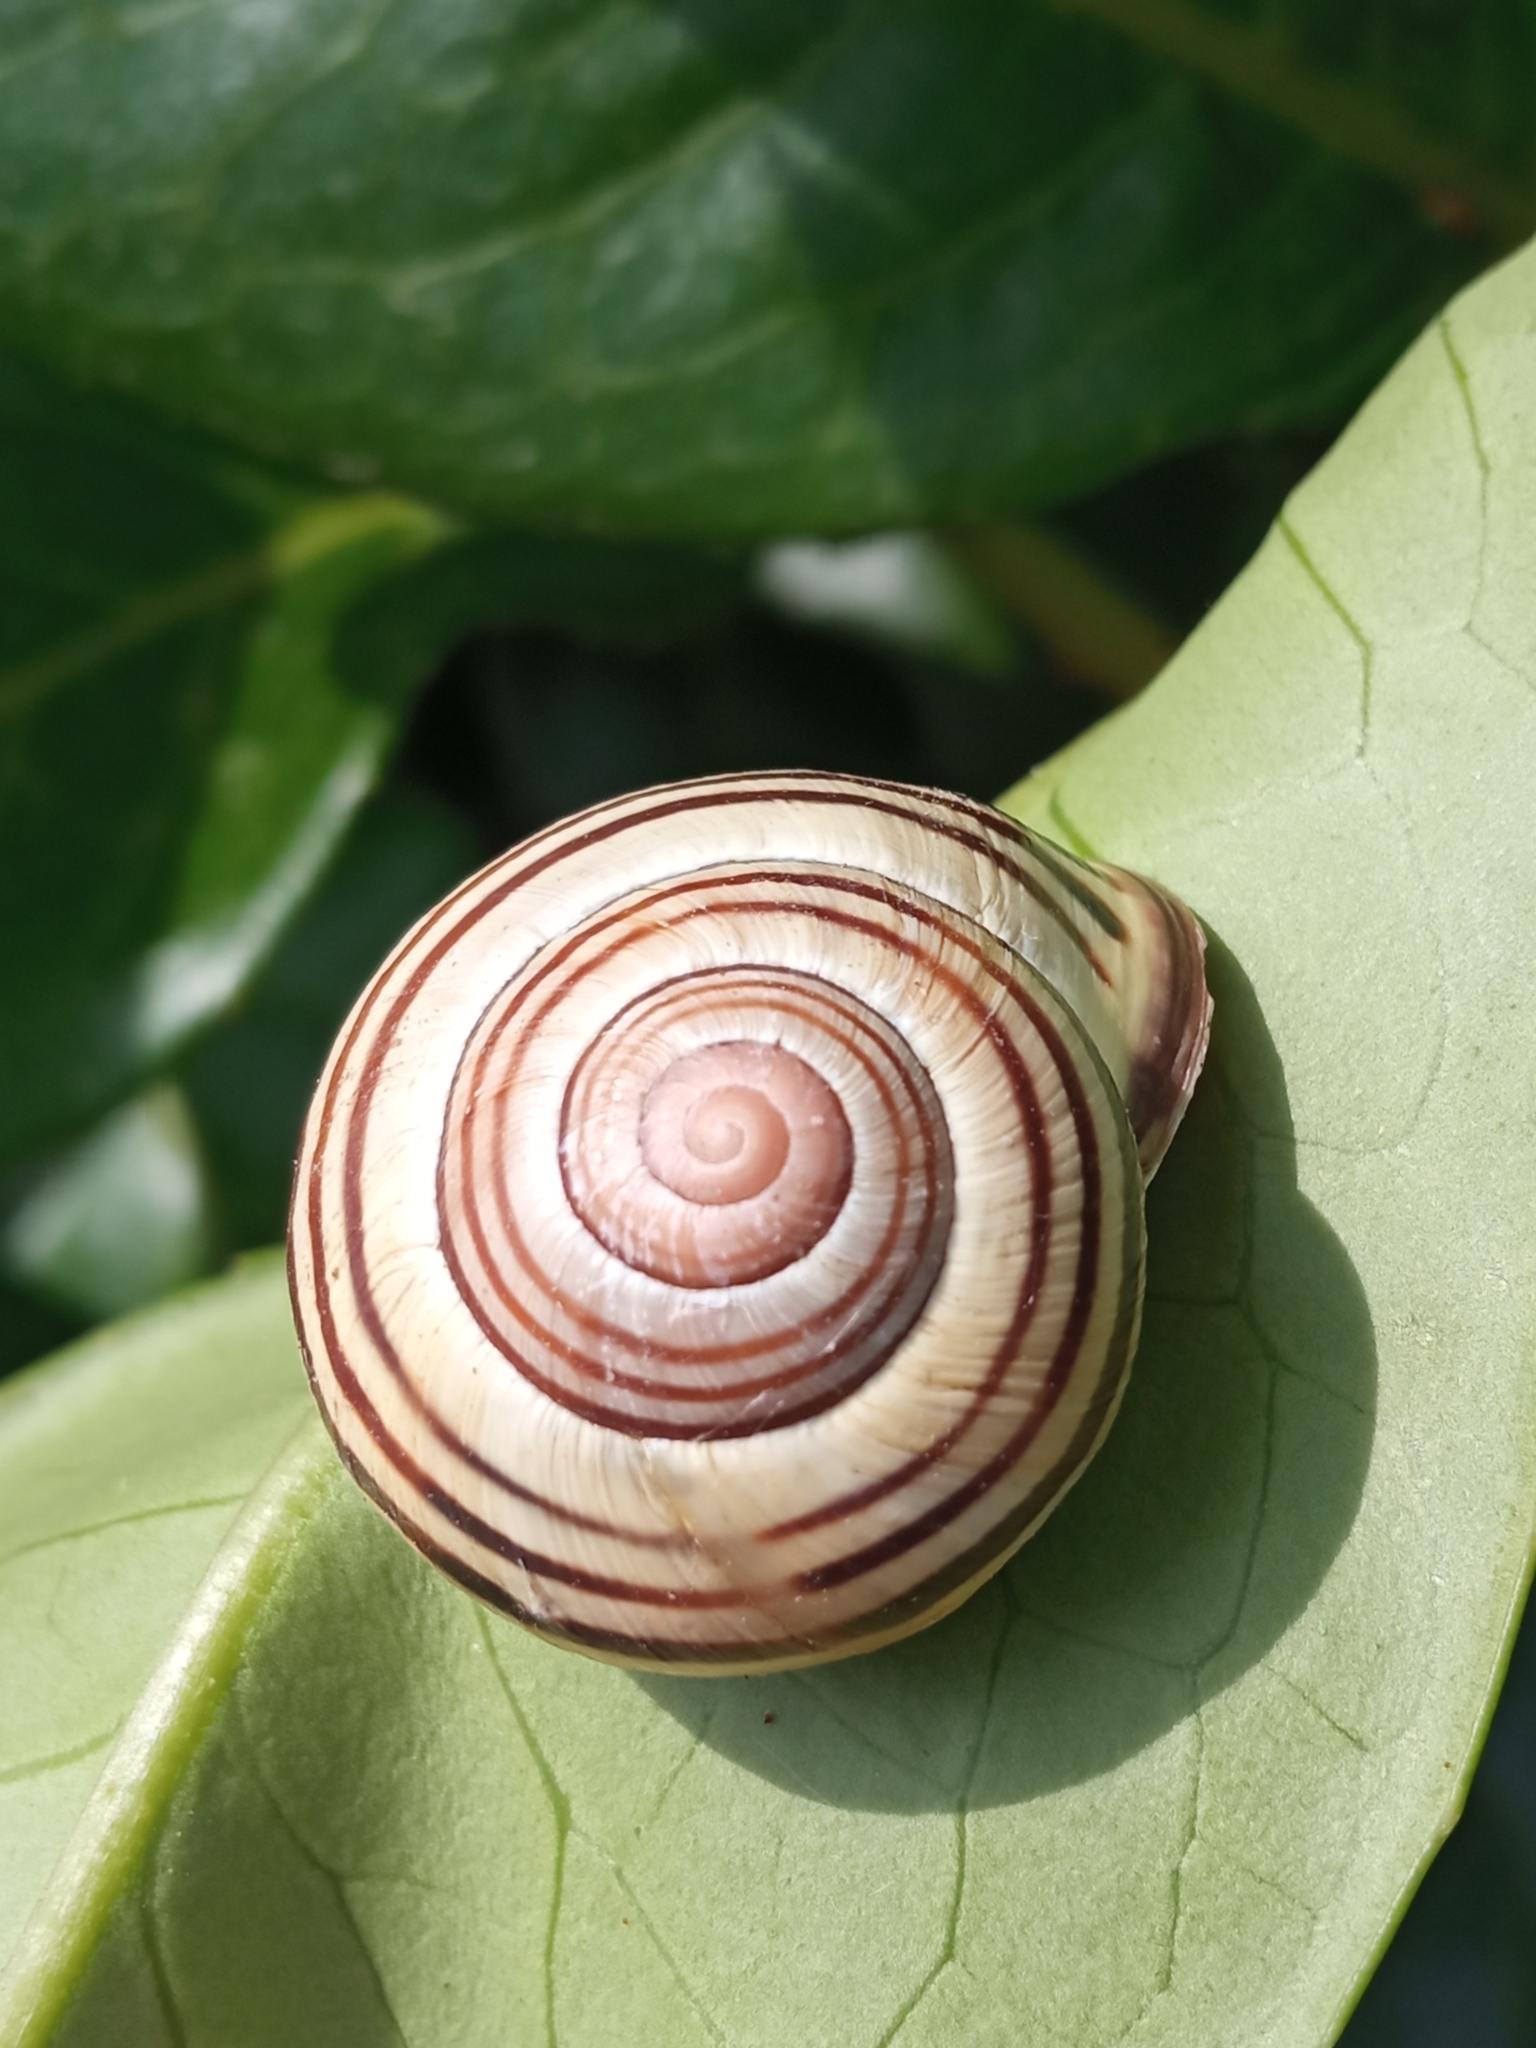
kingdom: Animalia
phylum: Mollusca
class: Gastropoda
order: Stylommatophora
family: Helicidae
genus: Cepaea
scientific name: Cepaea nemoralis
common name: Grovesnail
